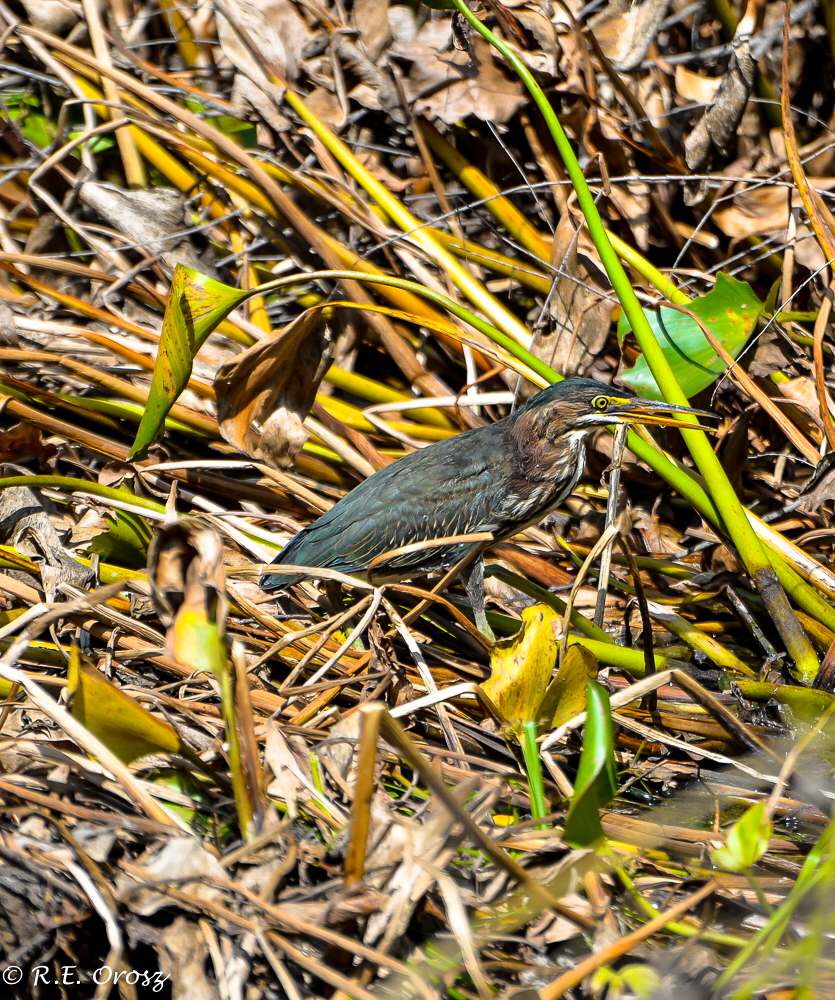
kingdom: Animalia
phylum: Chordata
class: Aves
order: Pelecaniformes
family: Ardeidae
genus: Butorides
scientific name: Butorides virescens
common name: Green heron
